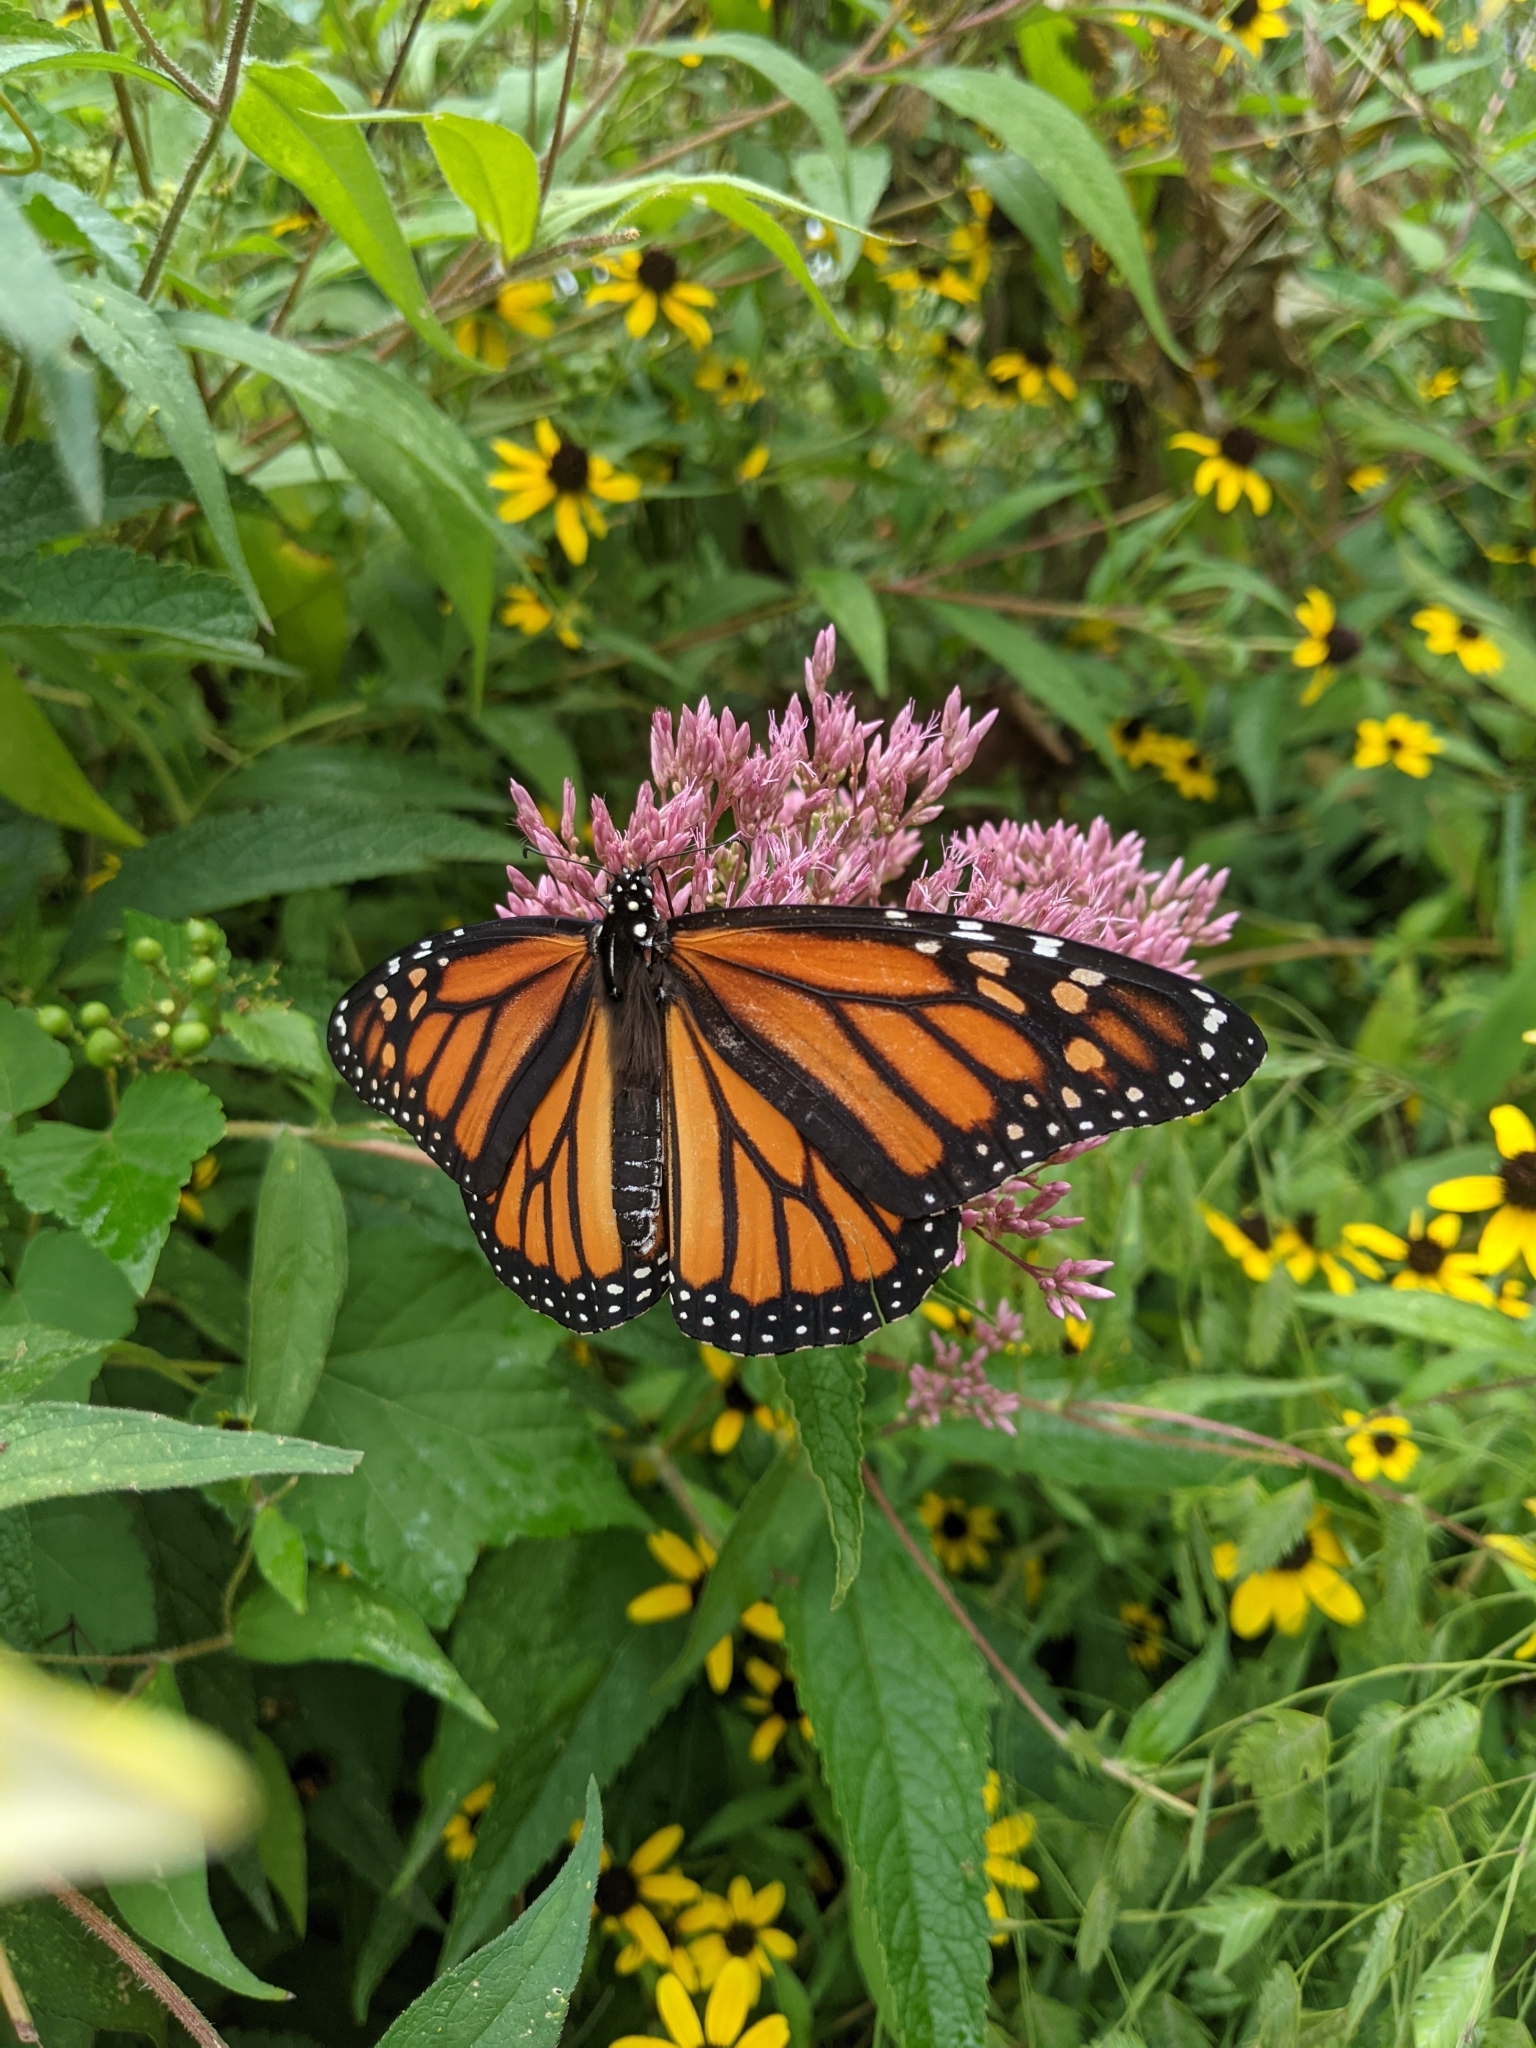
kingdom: Animalia
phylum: Arthropoda
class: Insecta
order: Lepidoptera
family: Nymphalidae
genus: Danaus
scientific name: Danaus plexippus
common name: Monarch
